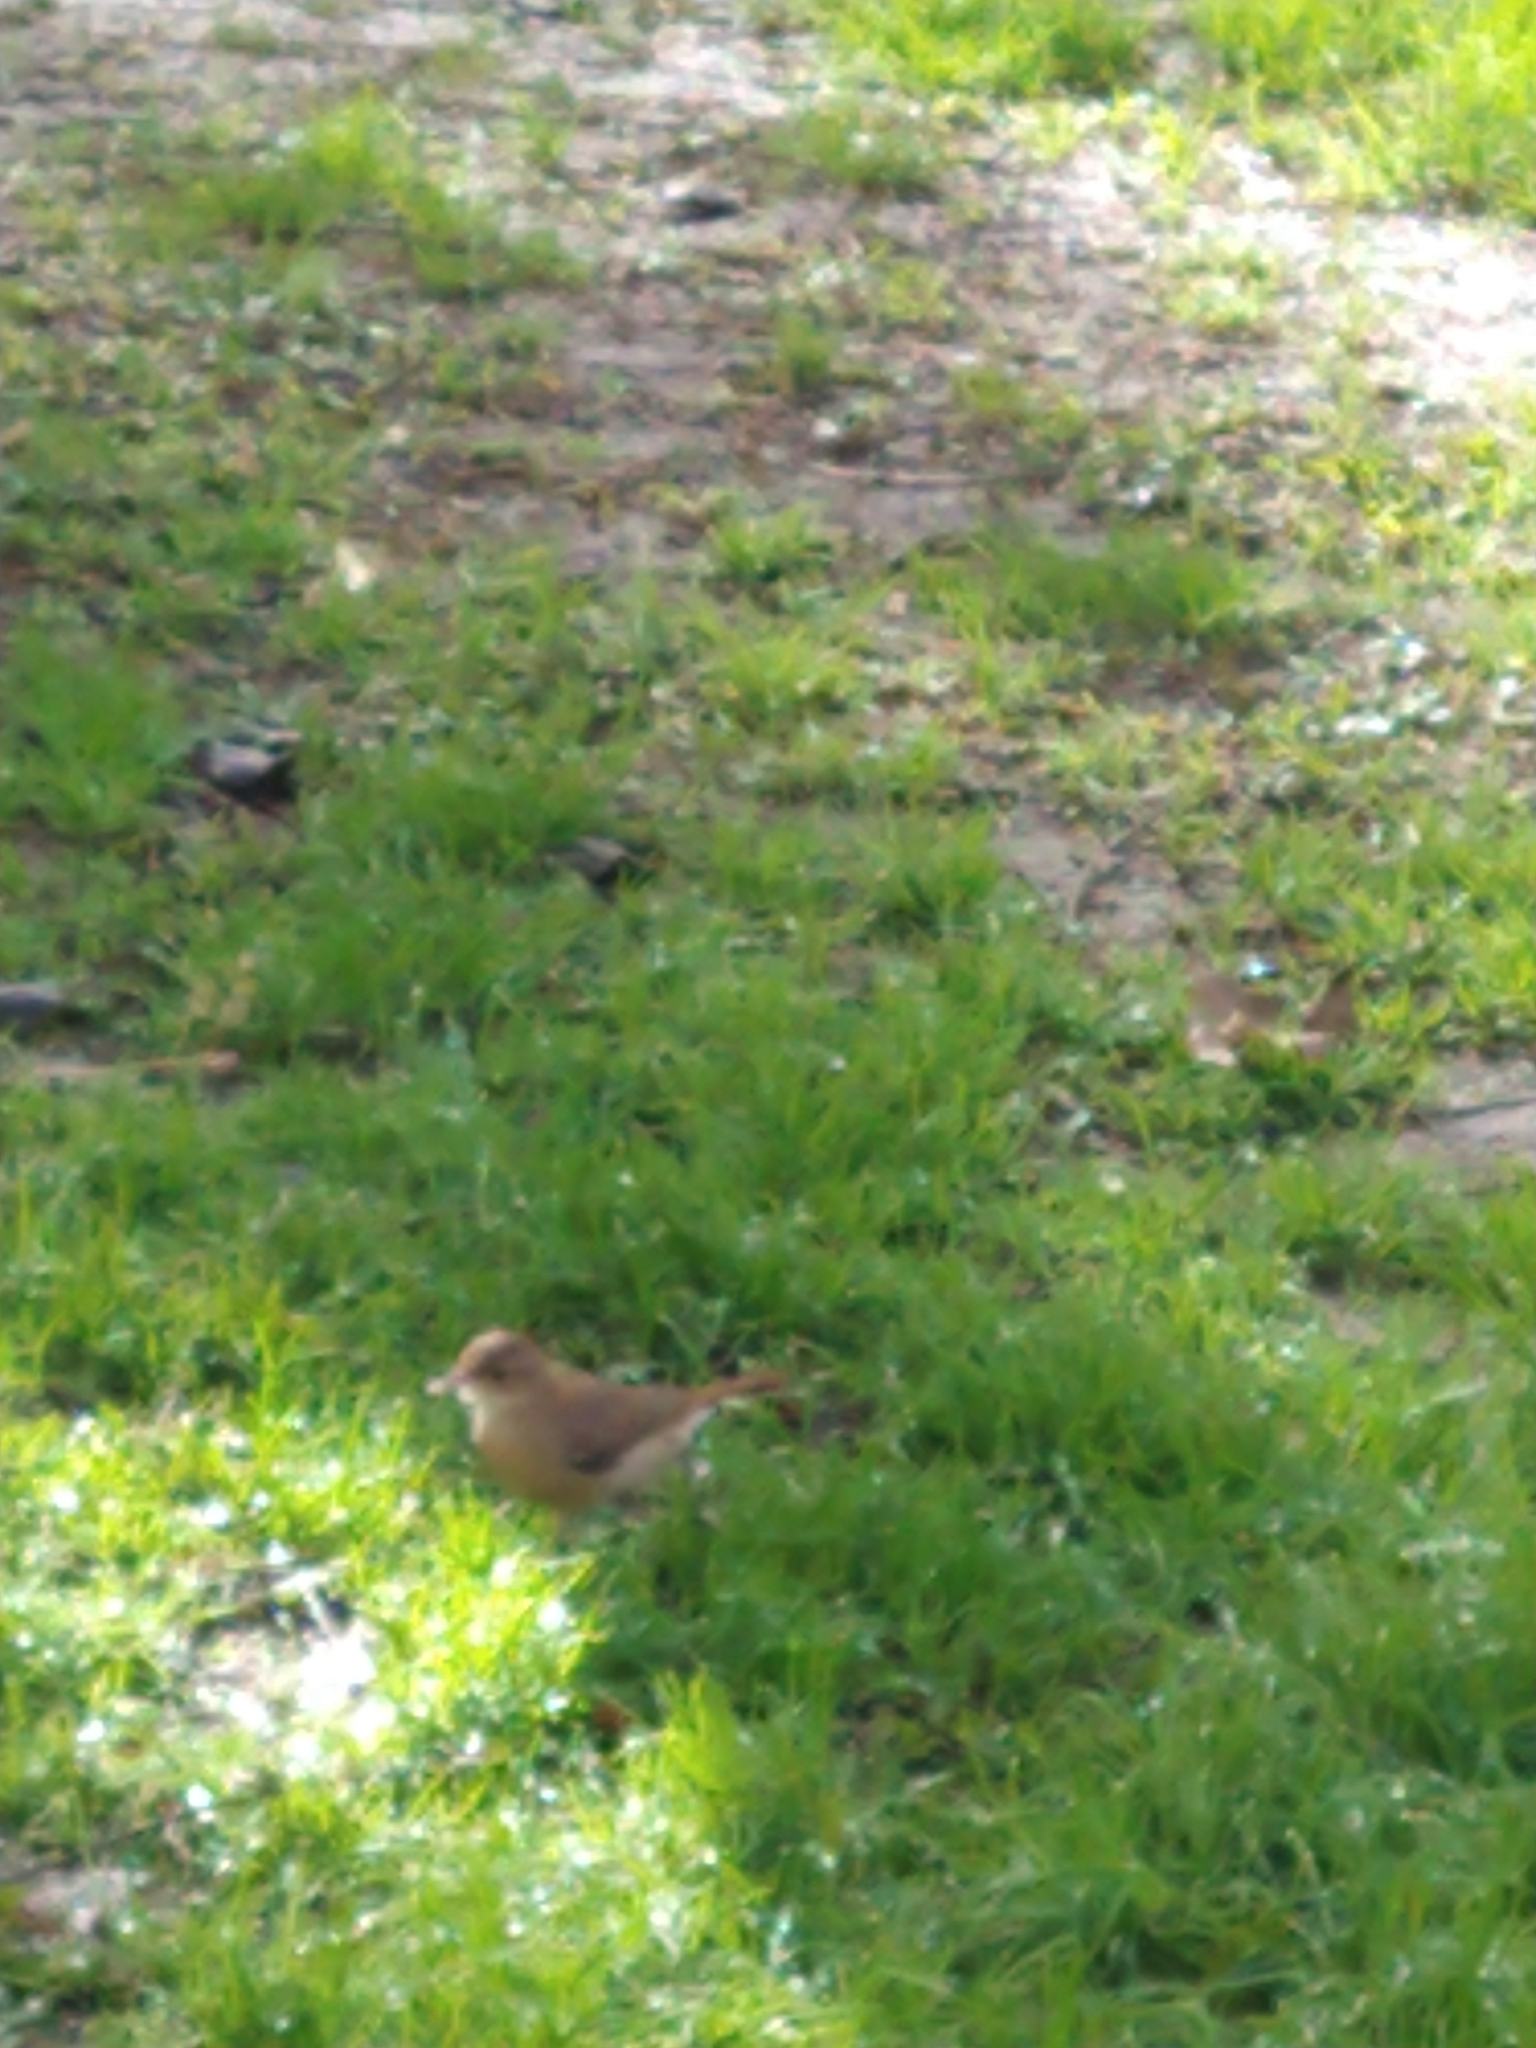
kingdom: Animalia
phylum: Chordata
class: Aves
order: Passeriformes
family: Furnariidae
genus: Furnarius
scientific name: Furnarius rufus
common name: Rufous hornero
